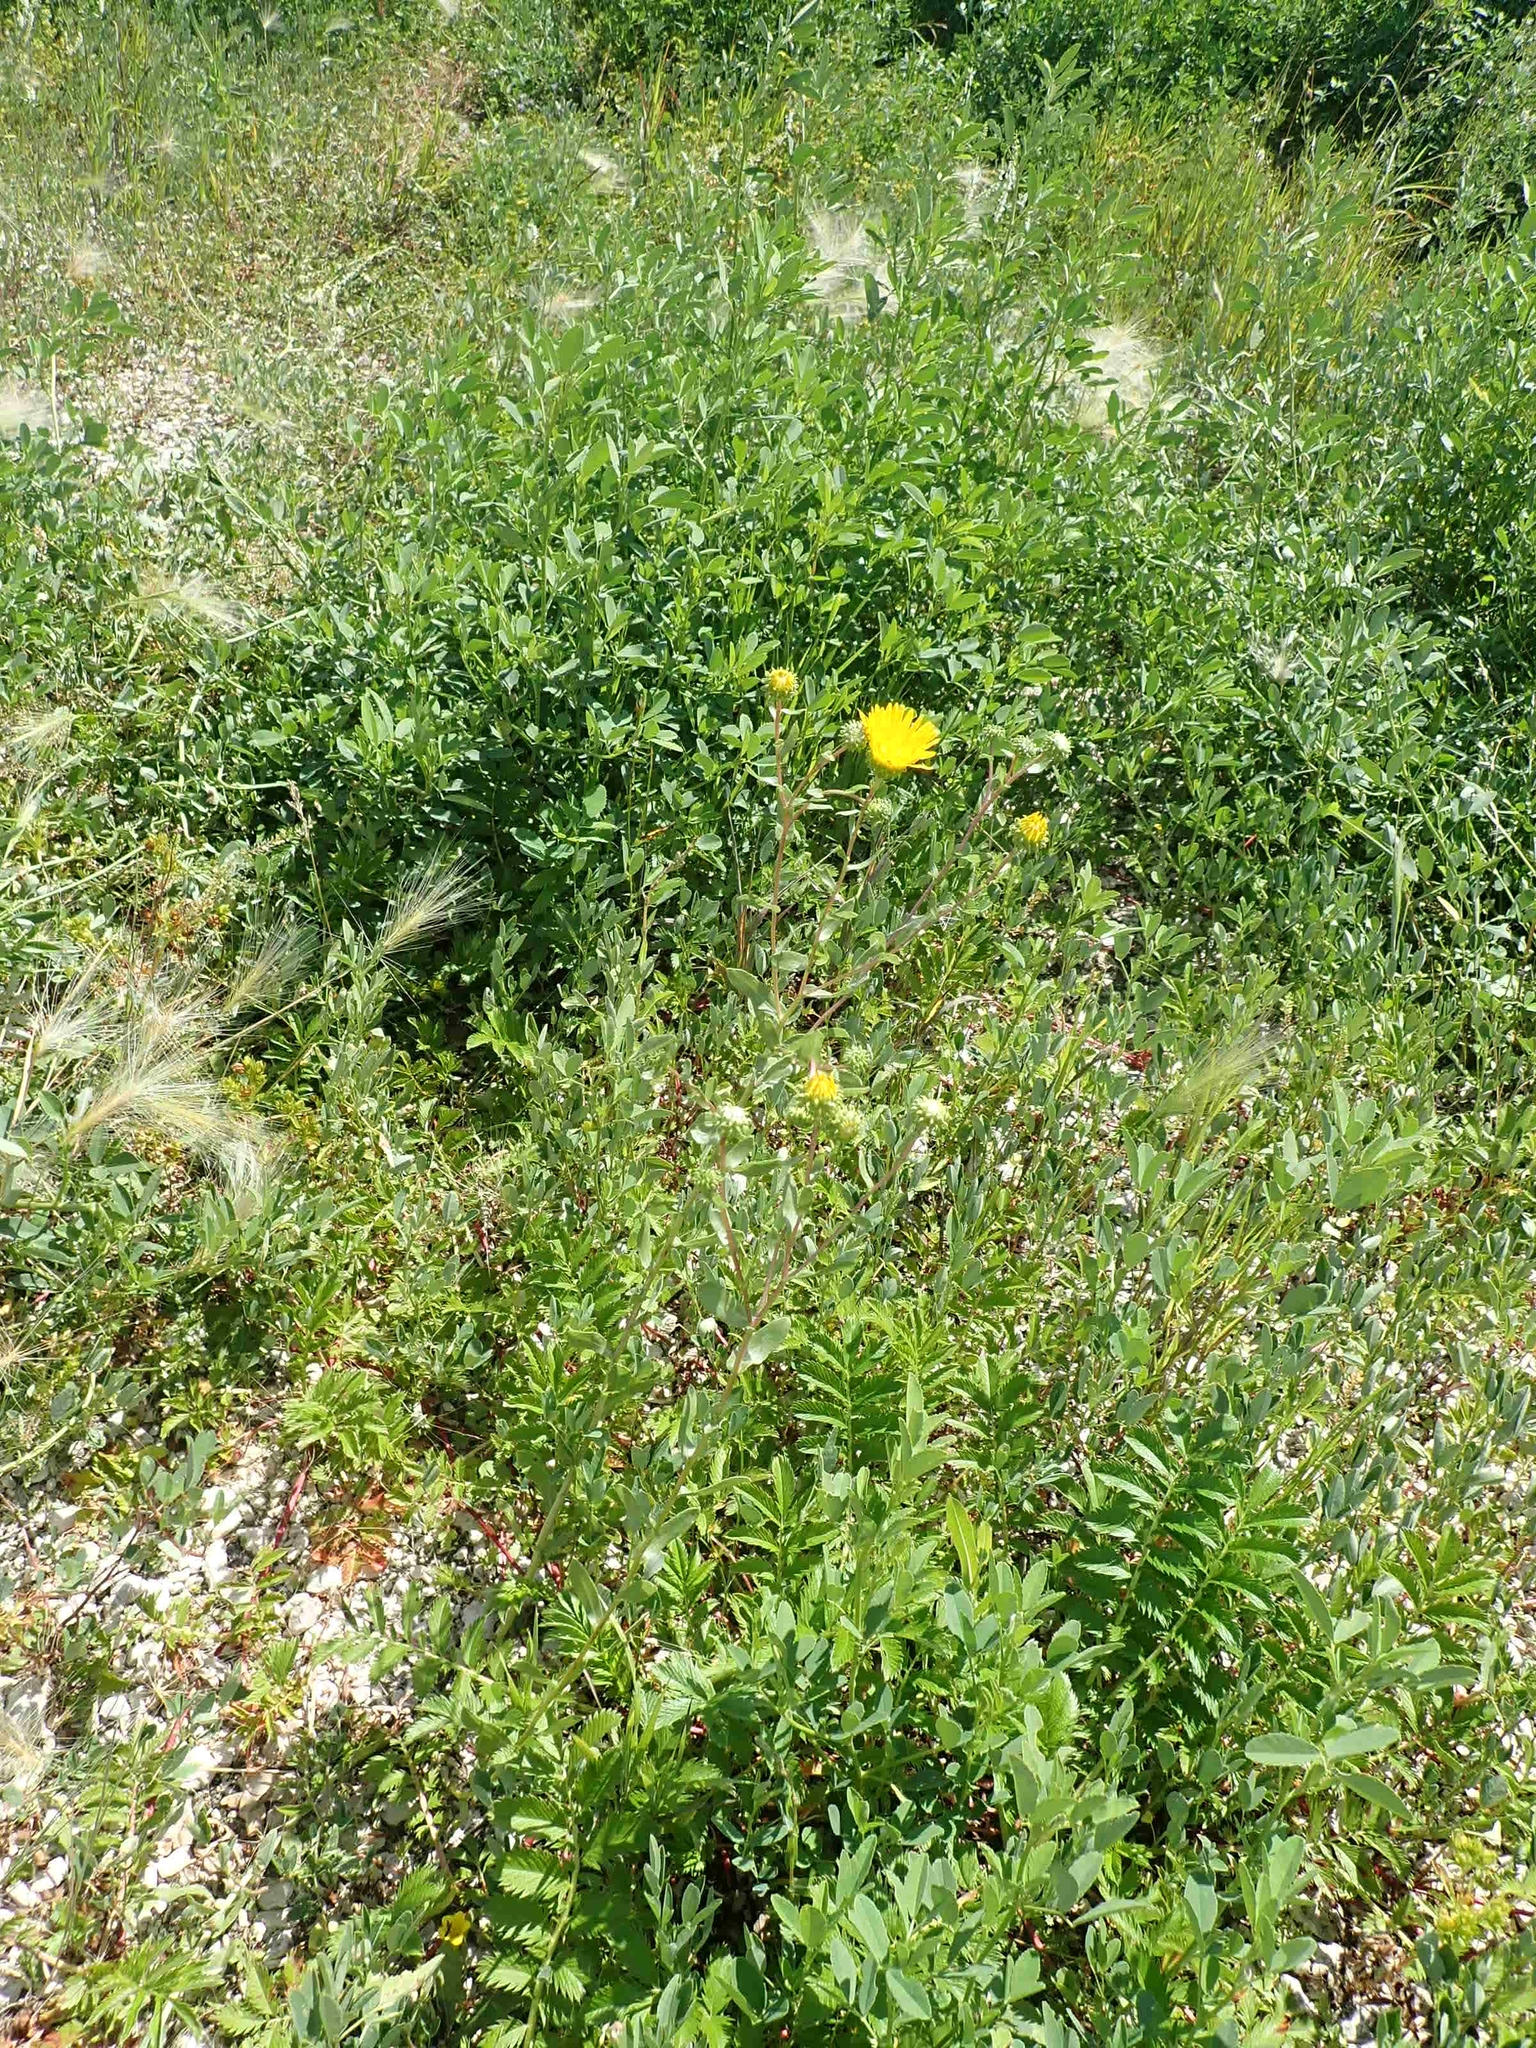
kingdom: Plantae
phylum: Tracheophyta
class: Magnoliopsida
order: Asterales
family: Asteraceae
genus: Grindelia
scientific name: Grindelia squarrosa
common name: Curly-cup gumweed
